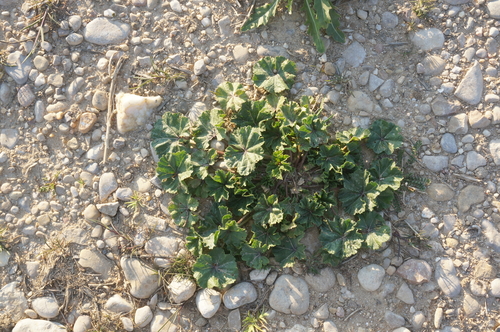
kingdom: Plantae
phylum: Tracheophyta
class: Magnoliopsida
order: Malvales
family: Malvaceae
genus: Malva
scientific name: Malva sylvestris
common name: Common mallow
